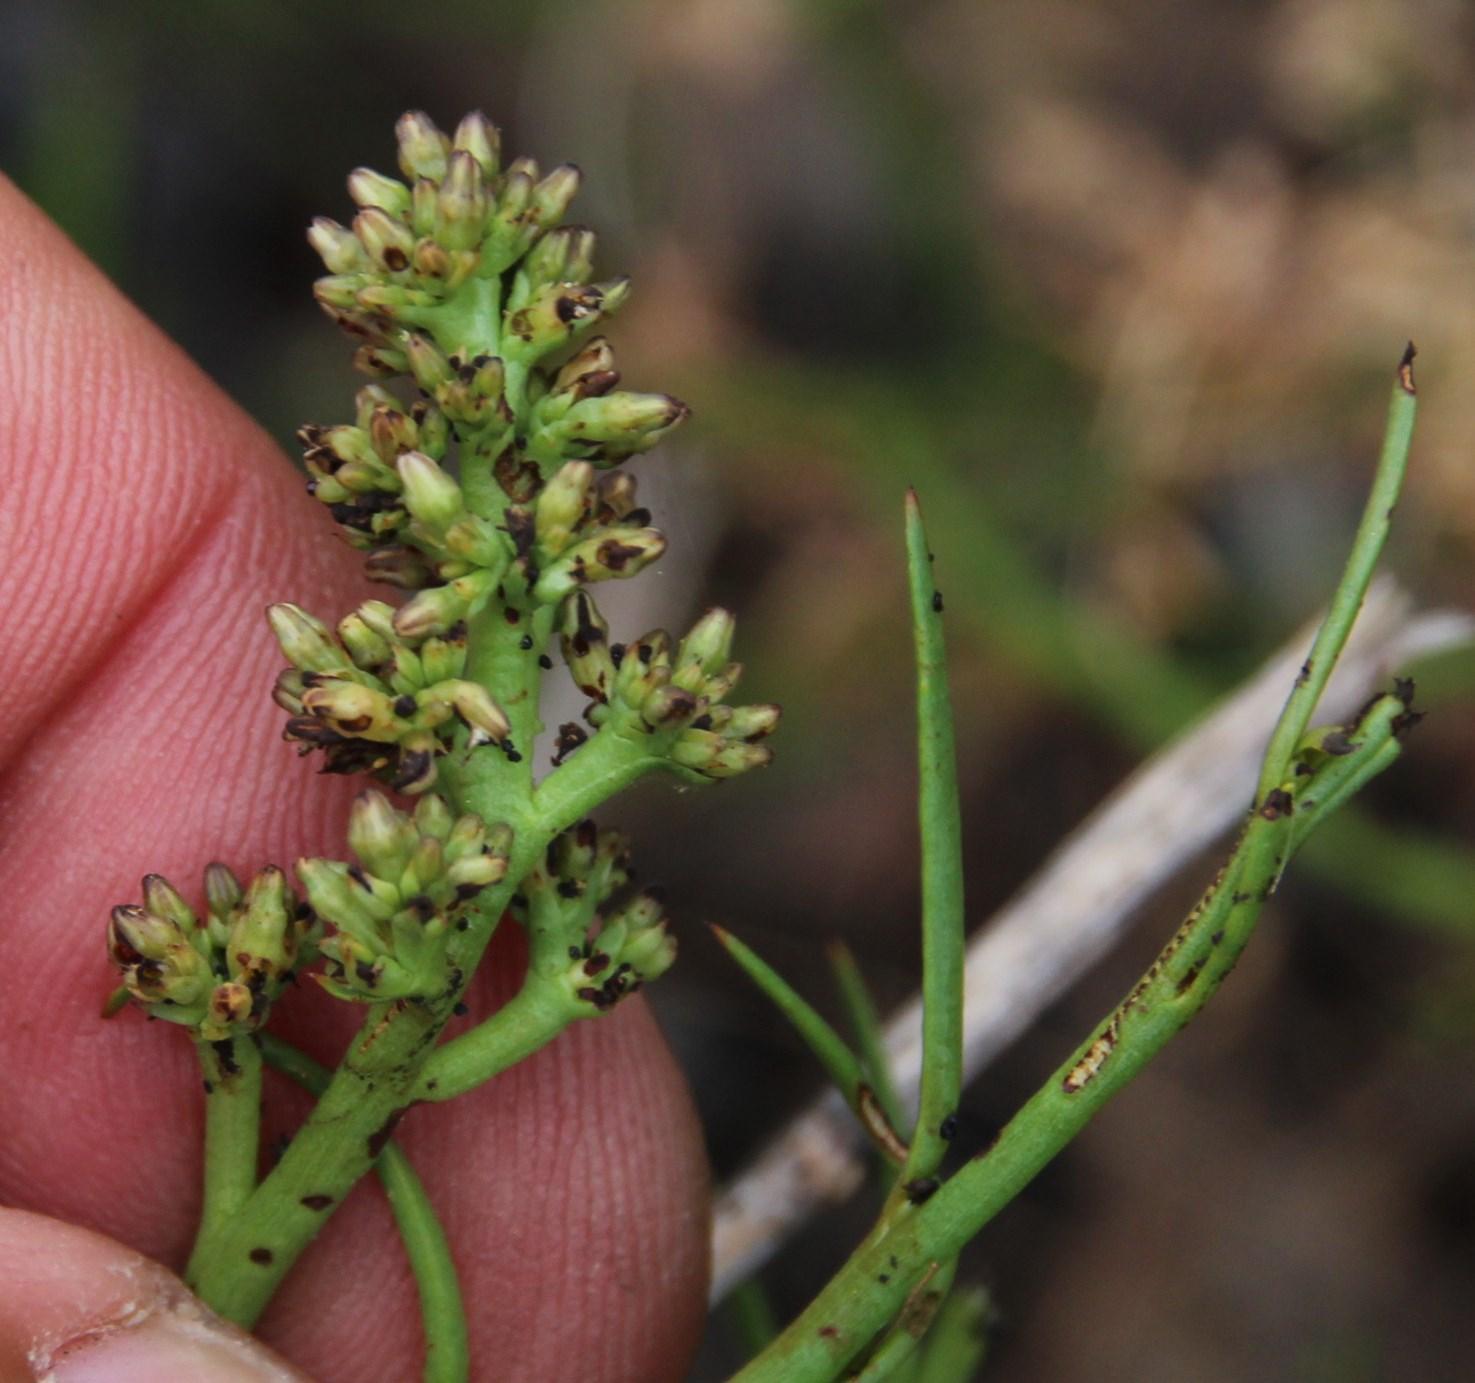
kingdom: Plantae
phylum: Tracheophyta
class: Magnoliopsida
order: Santalales
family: Thesiaceae
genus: Thesium
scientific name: Thesium ecklonianum
